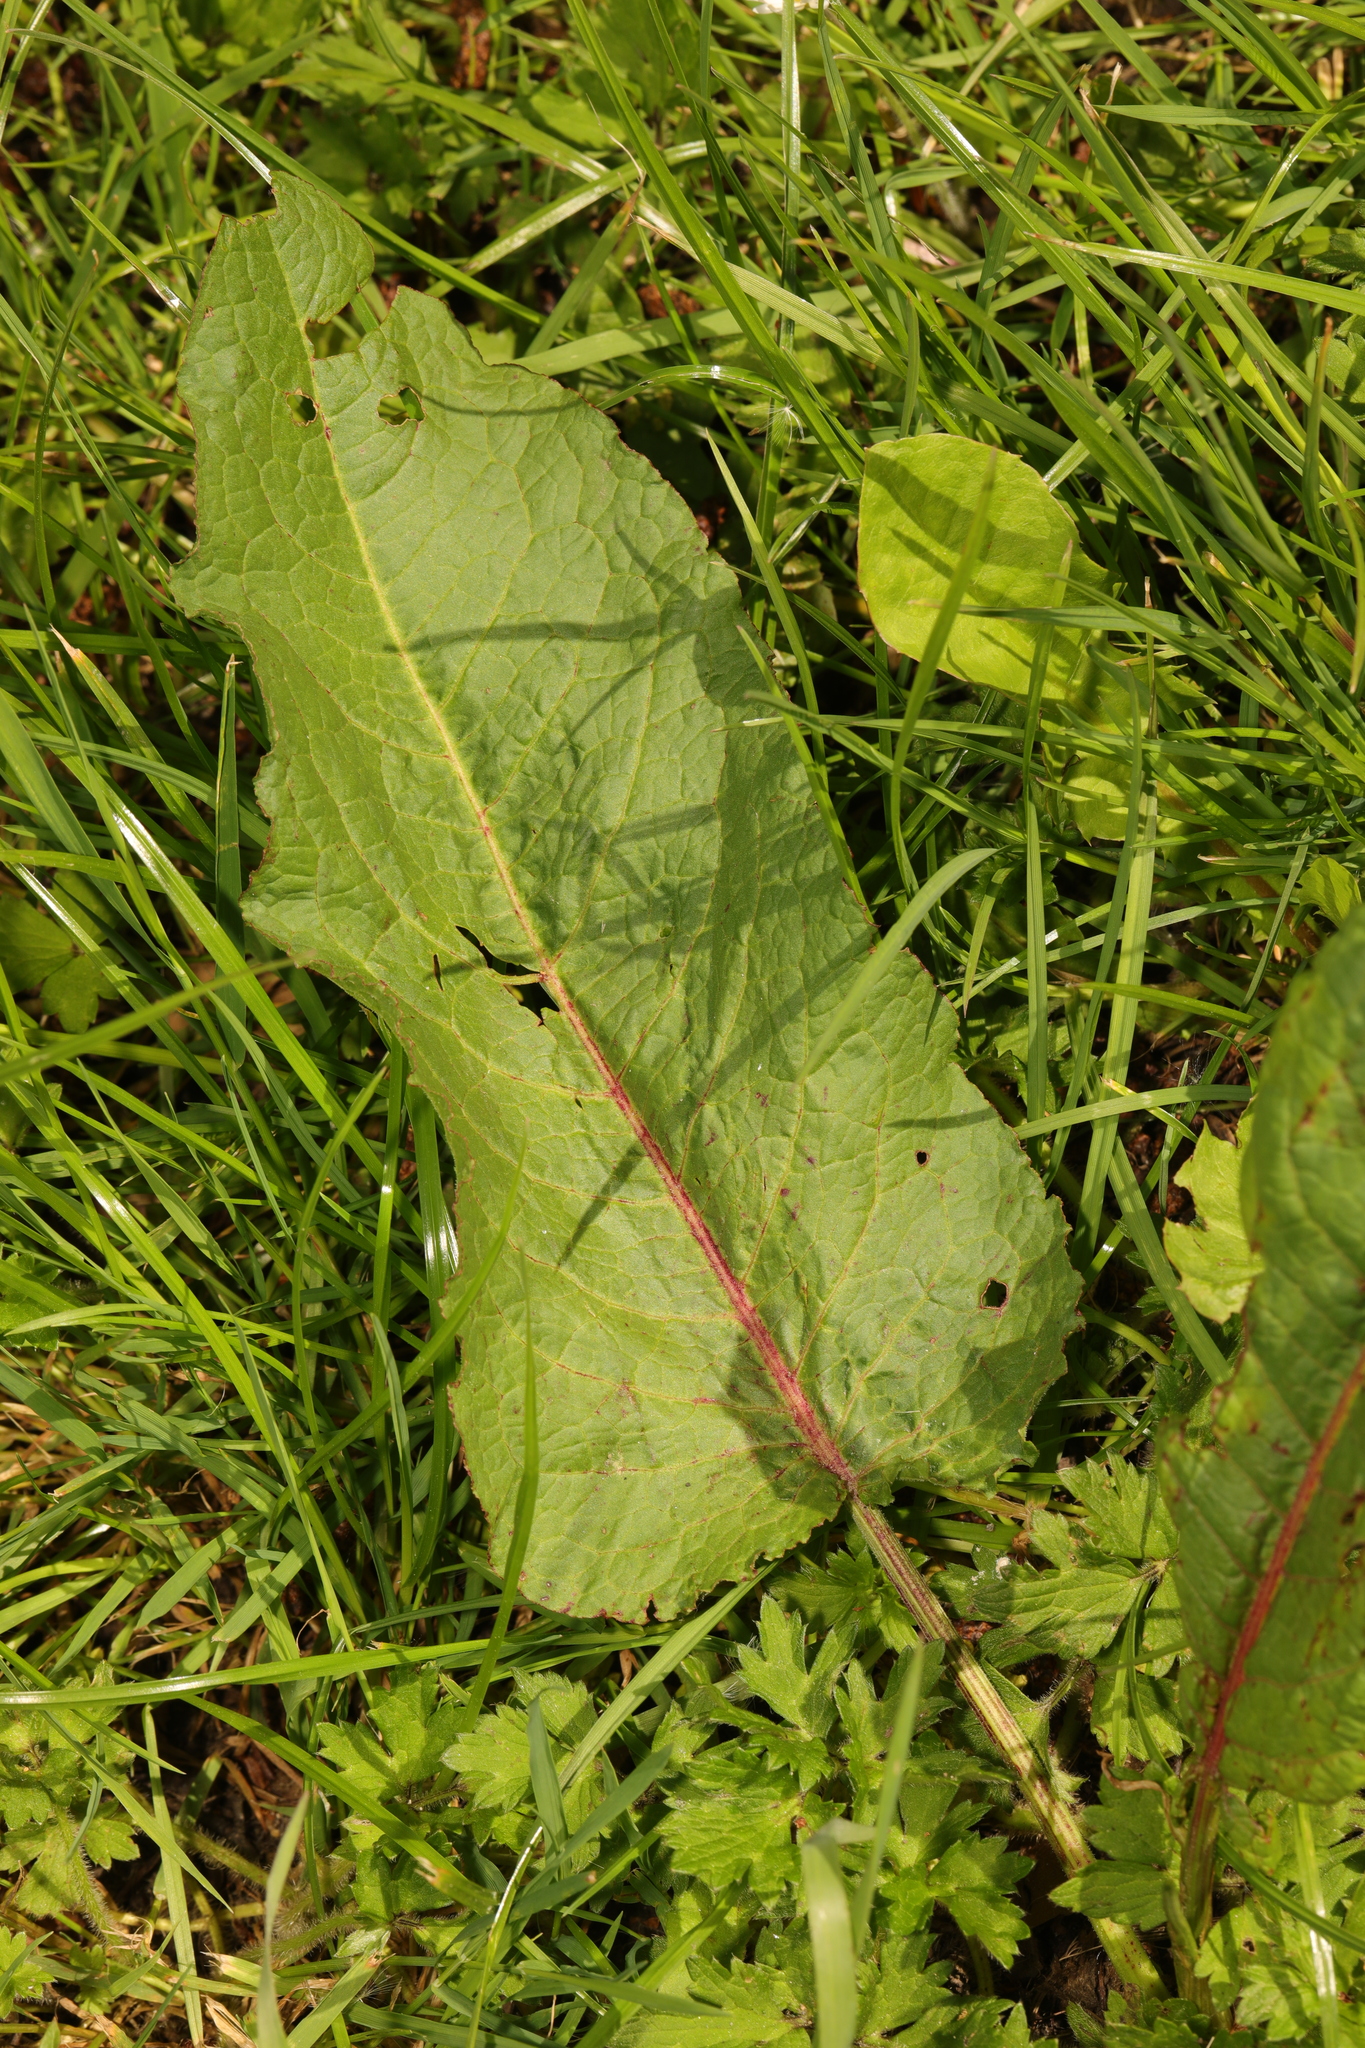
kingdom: Plantae
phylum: Tracheophyta
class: Magnoliopsida
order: Caryophyllales
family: Polygonaceae
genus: Rumex
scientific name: Rumex obtusifolius
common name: Bitter dock
